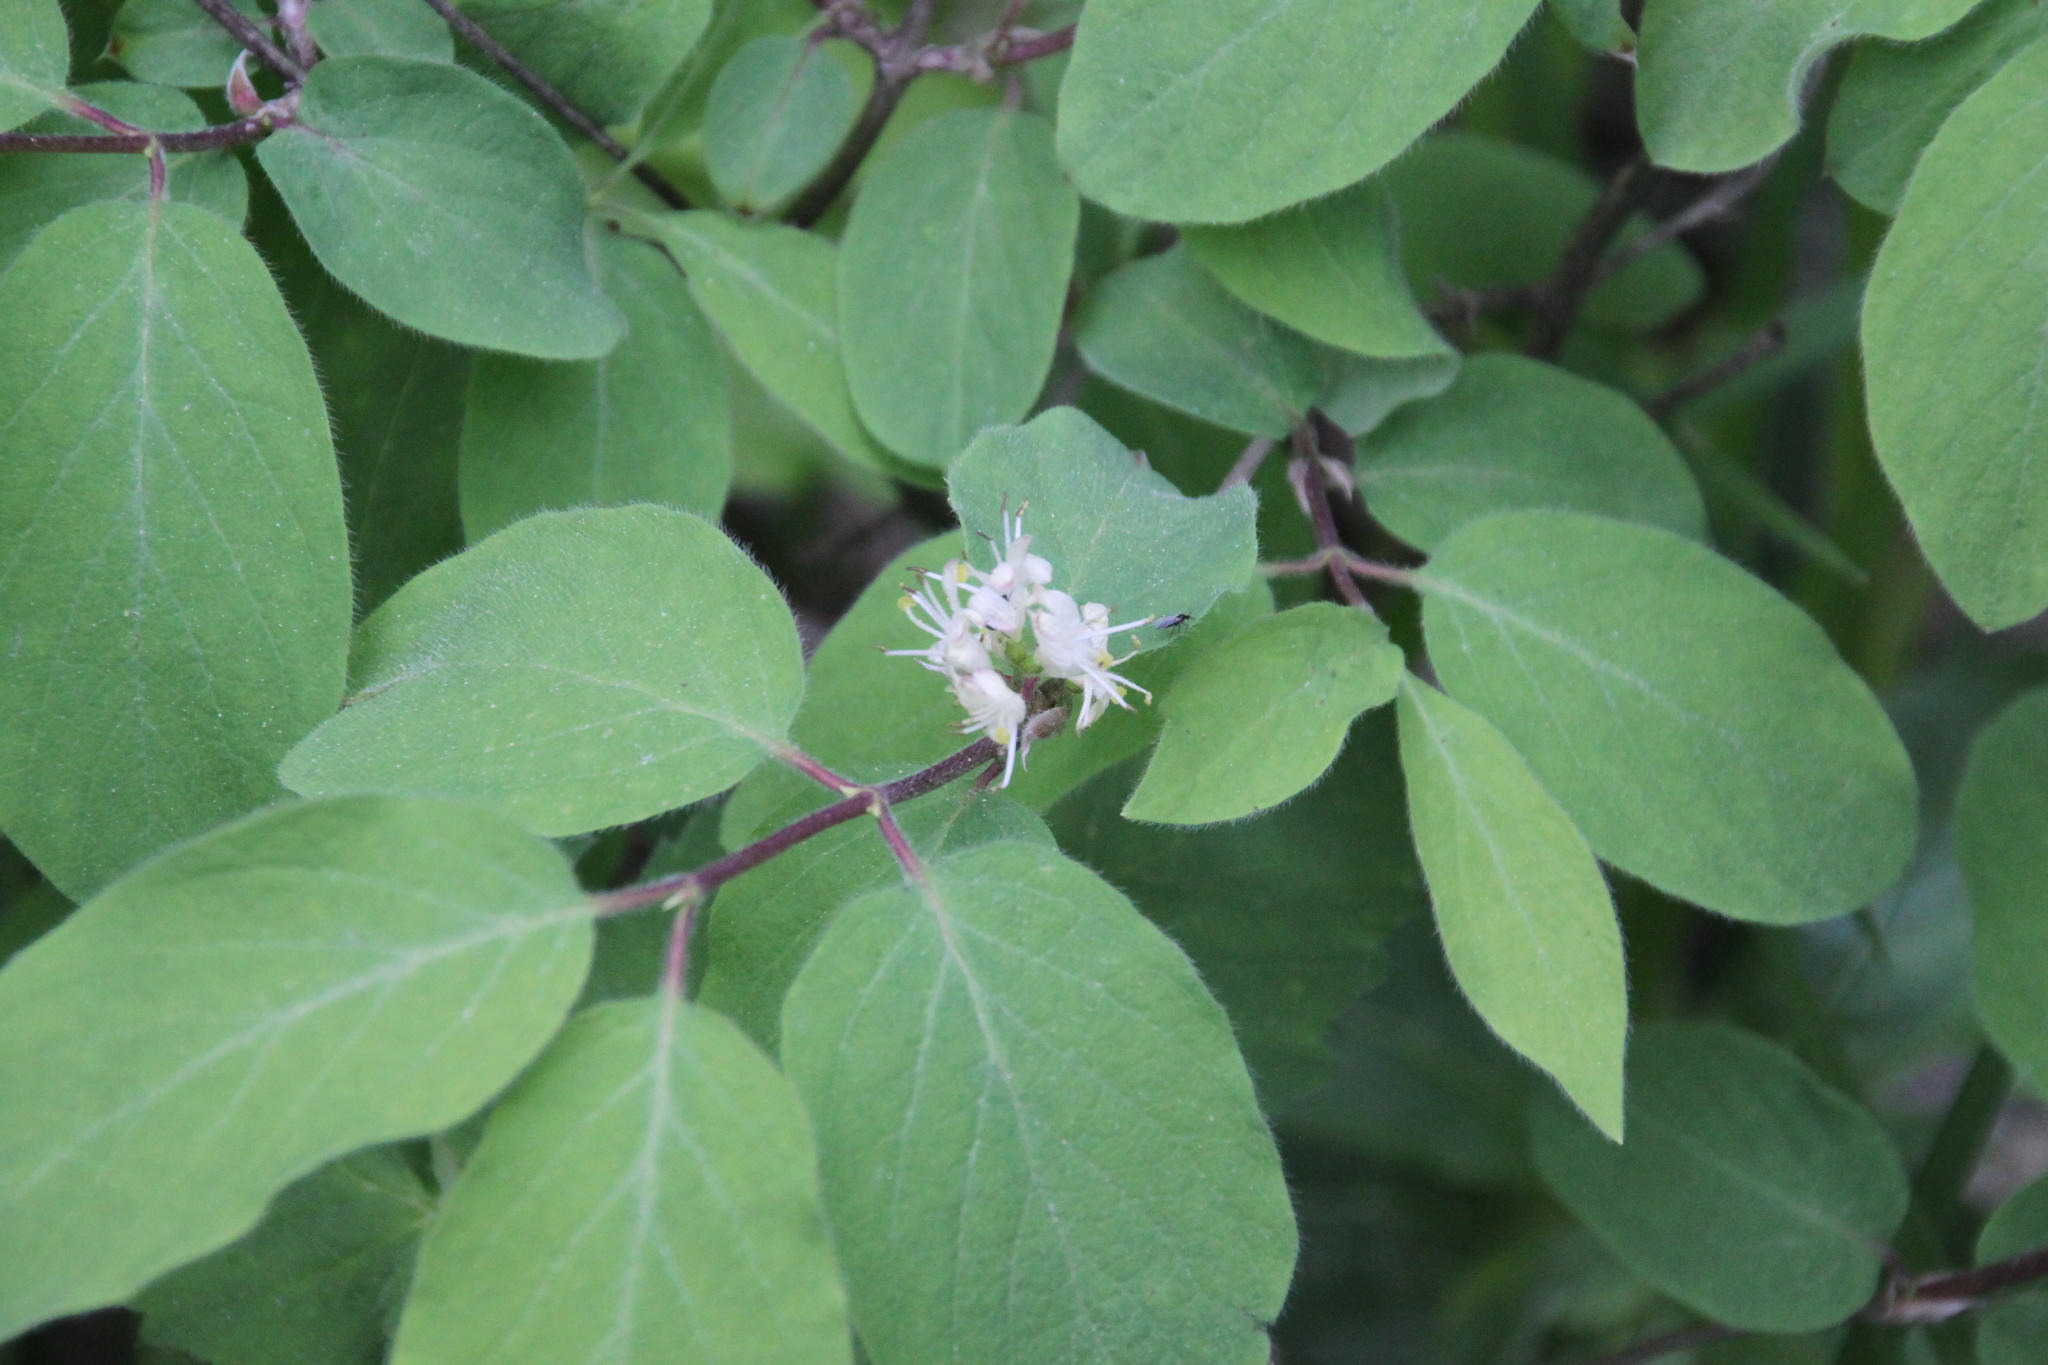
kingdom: Plantae
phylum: Tracheophyta
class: Magnoliopsida
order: Dipsacales
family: Caprifoliaceae
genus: Lonicera
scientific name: Lonicera xylosteum
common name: Fly honeysuckle
